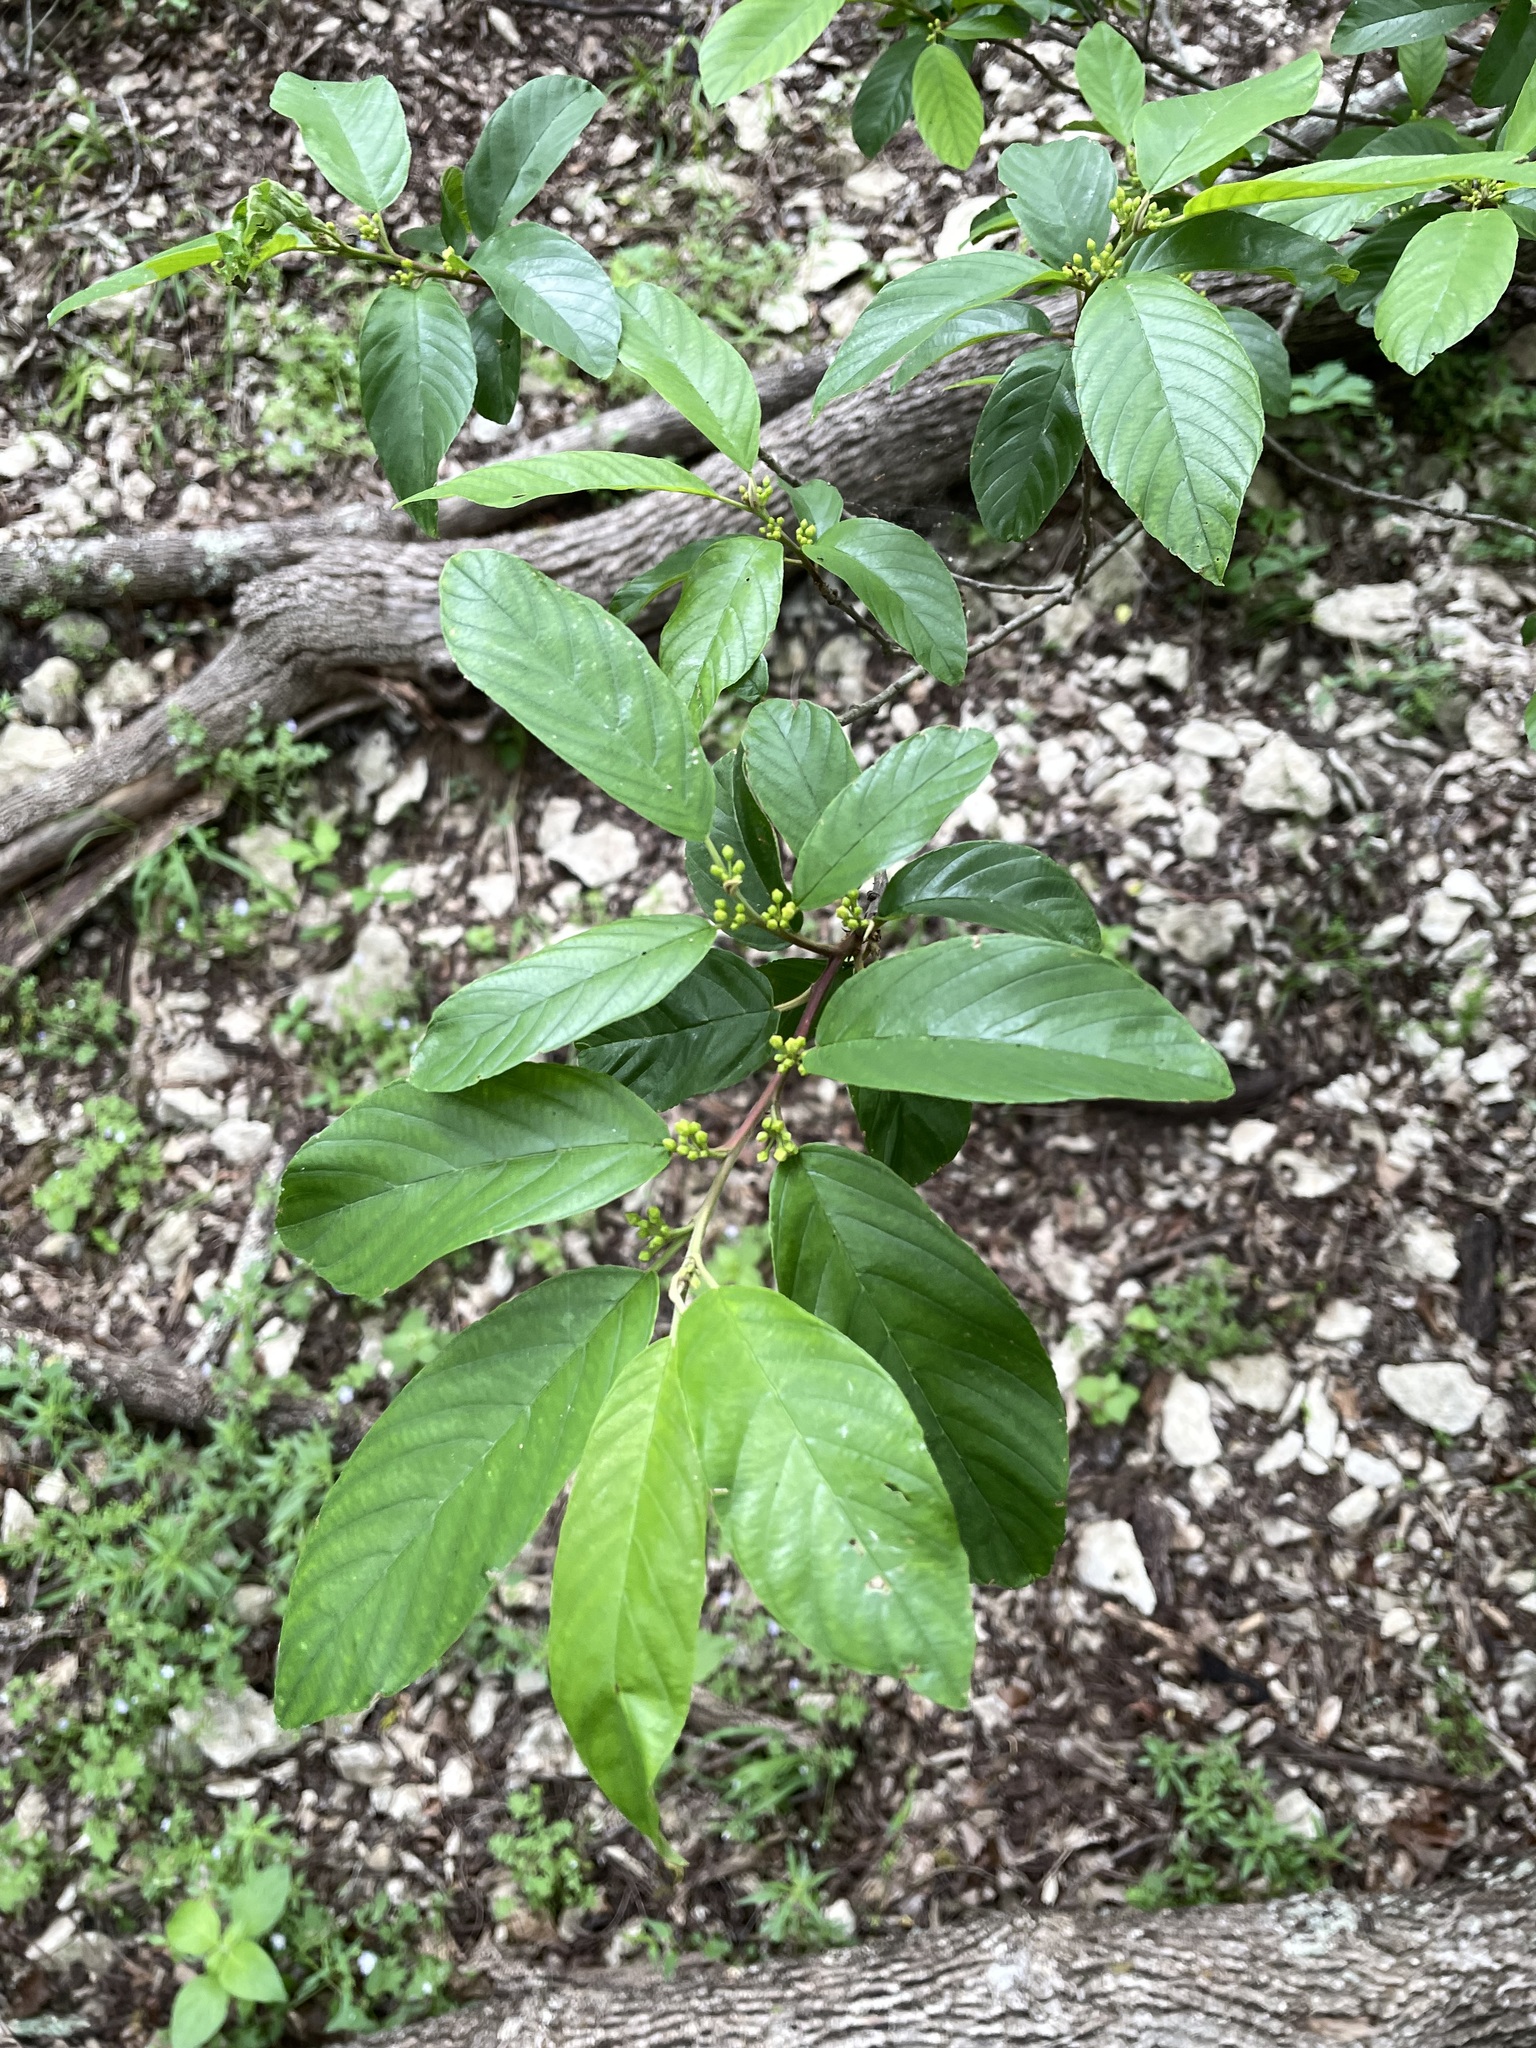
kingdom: Plantae
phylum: Tracheophyta
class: Magnoliopsida
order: Rosales
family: Rhamnaceae
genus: Frangula
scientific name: Frangula caroliniana
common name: Carolina buckthorn
